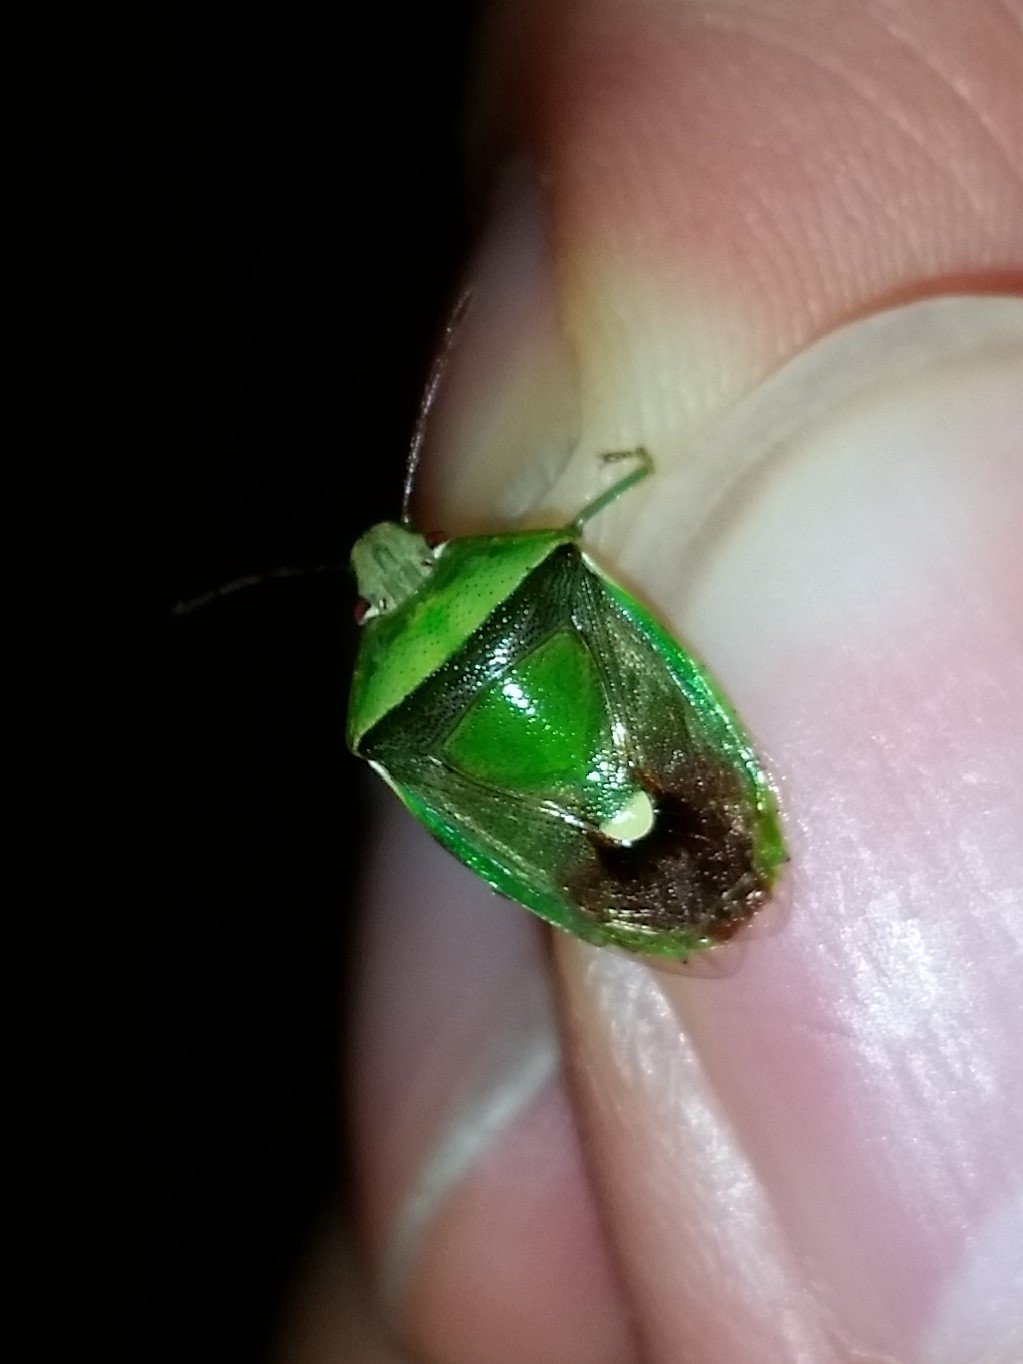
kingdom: Animalia
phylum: Arthropoda
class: Insecta
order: Hemiptera
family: Pentatomidae
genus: Banasa
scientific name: Banasa dimidiata
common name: Green burgundy stink bug
